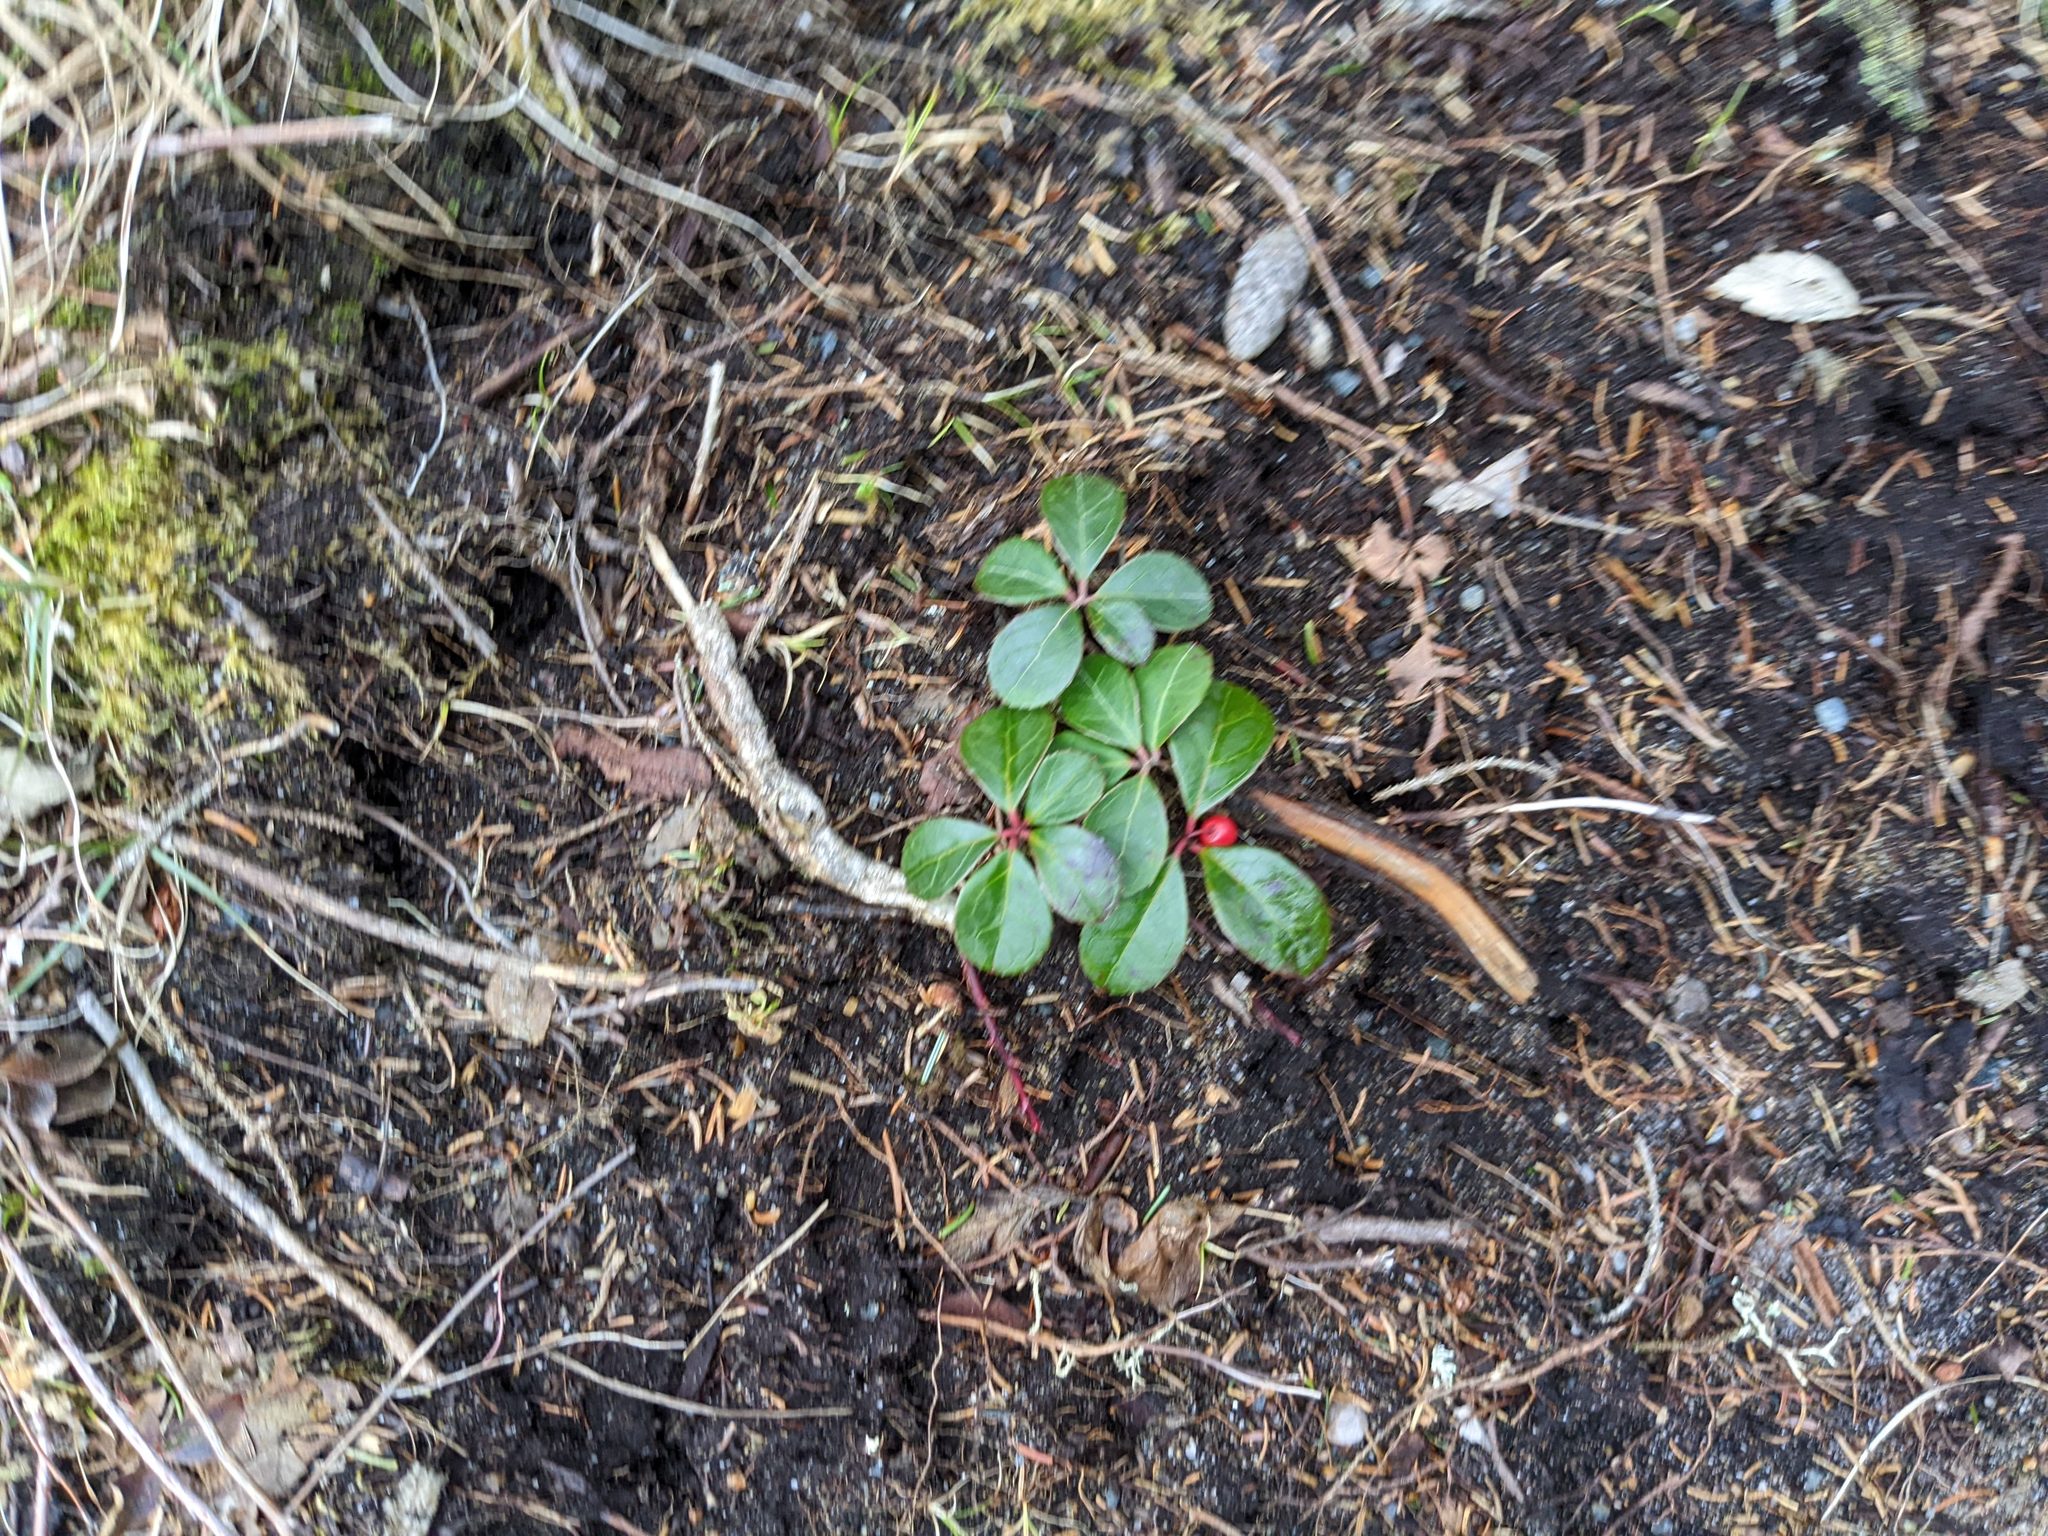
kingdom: Plantae
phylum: Tracheophyta
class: Magnoliopsida
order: Ericales
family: Ericaceae
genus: Gaultheria
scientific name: Gaultheria procumbens
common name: Checkerberry
